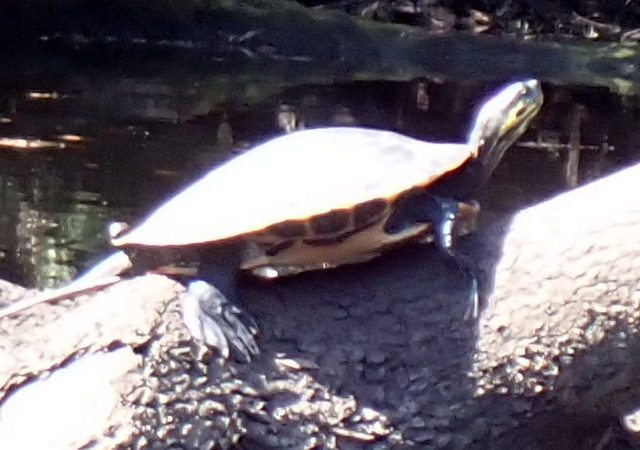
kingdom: Animalia
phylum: Chordata
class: Testudines
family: Emydidae
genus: Pseudemys
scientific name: Pseudemys concinna
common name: Eastern river cooter
